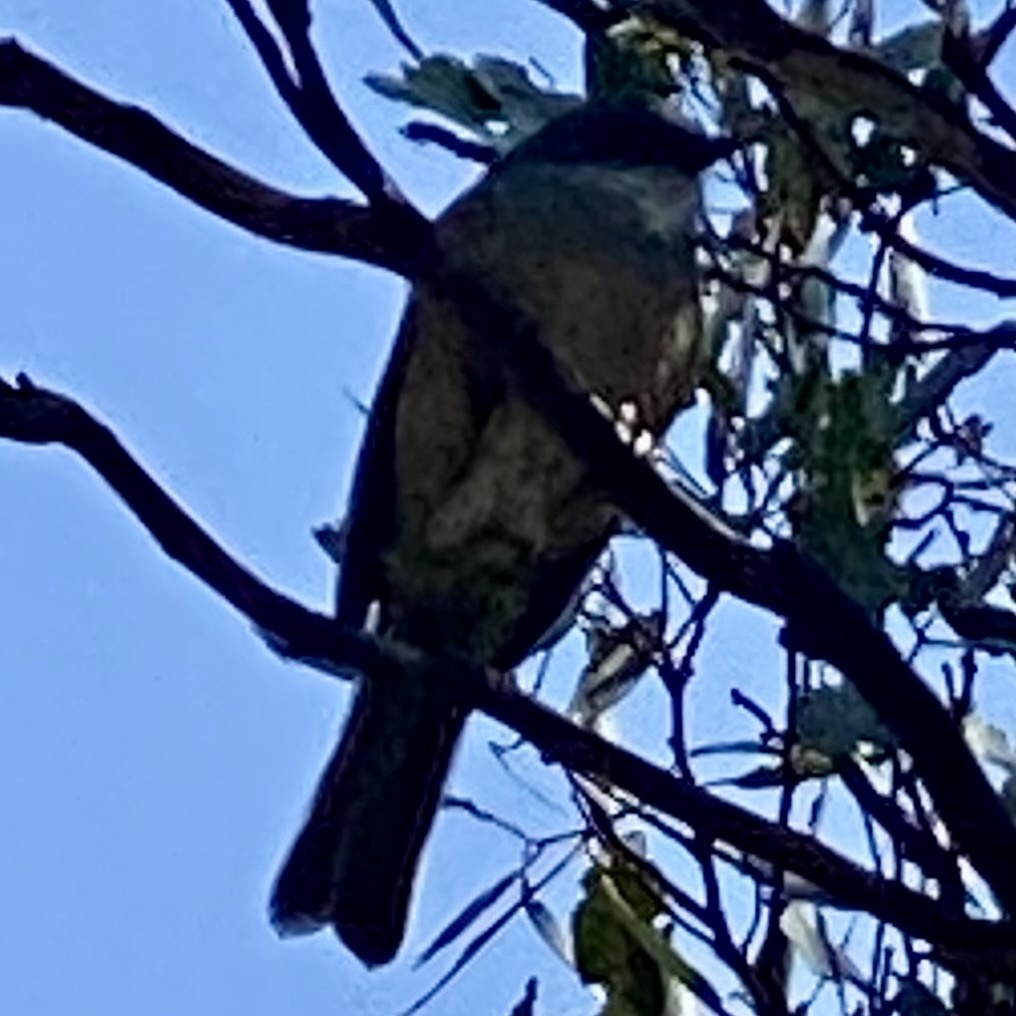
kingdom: Animalia
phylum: Chordata
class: Aves
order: Passeriformes
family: Pachycephalidae
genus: Pachycephala
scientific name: Pachycephala olivacea
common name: Olive whistler
